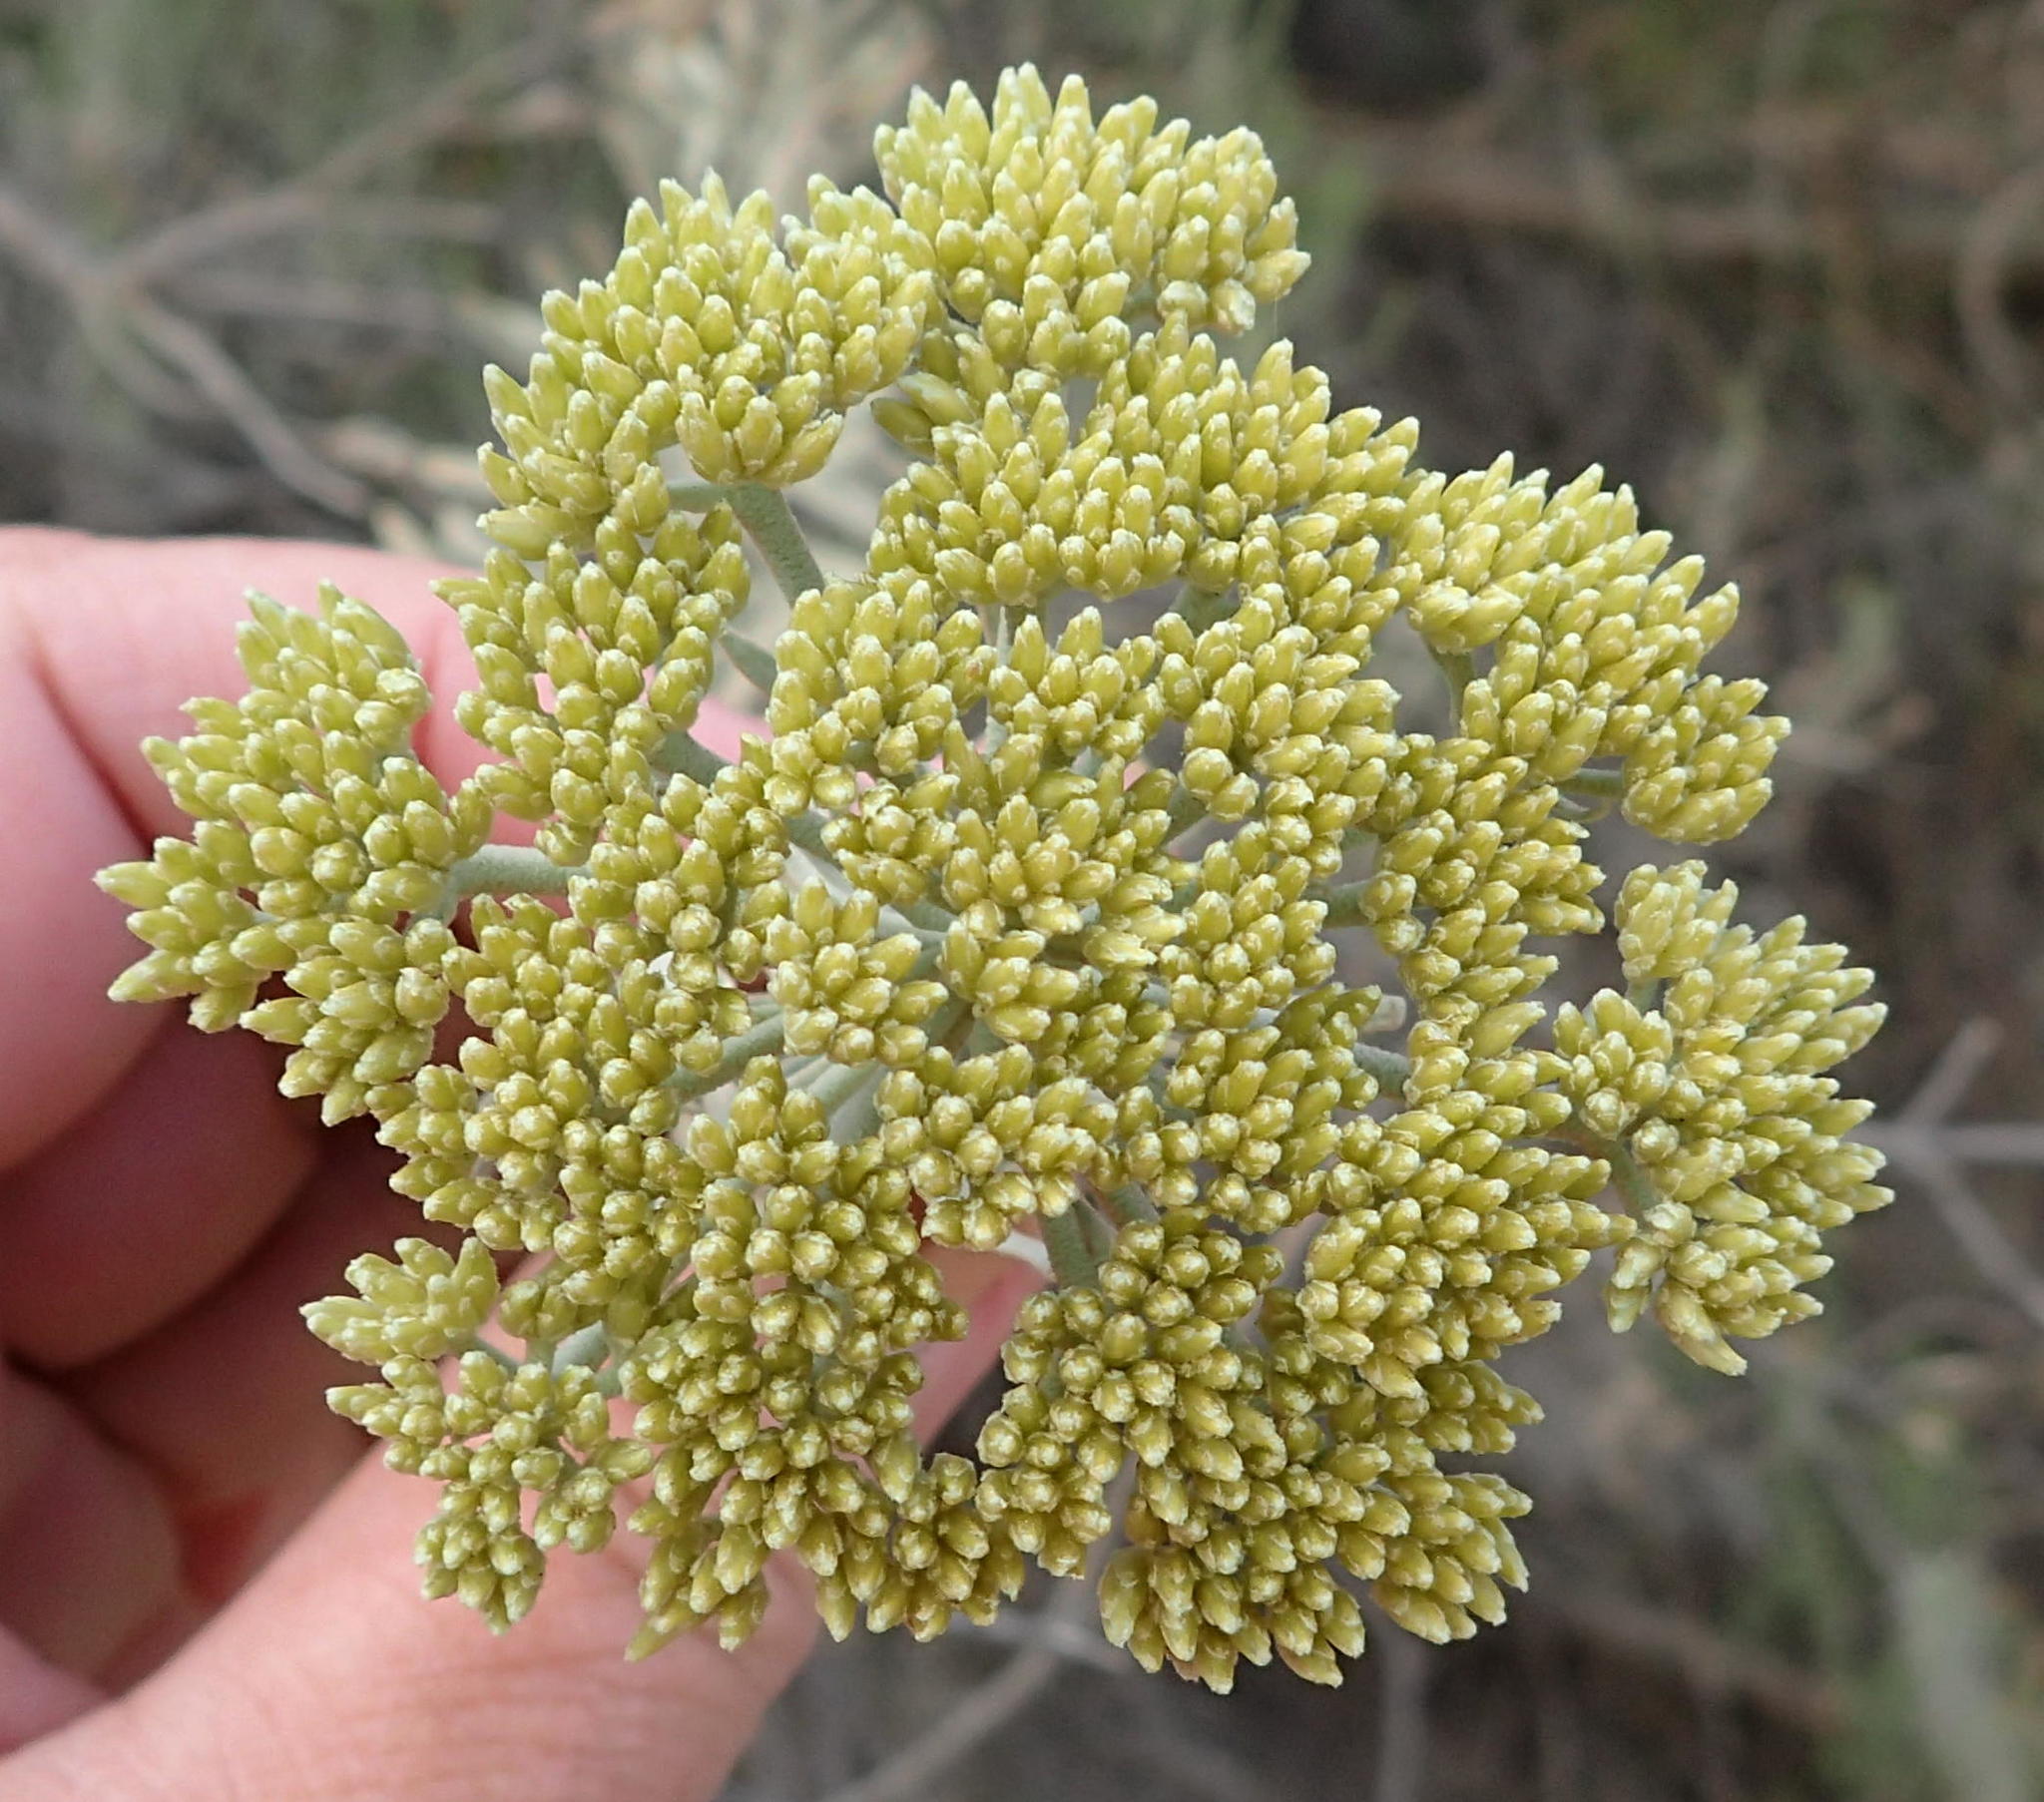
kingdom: Plantae
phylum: Tracheophyta
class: Magnoliopsida
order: Asterales
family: Asteraceae
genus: Athanasia
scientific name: Athanasia tomentosa
